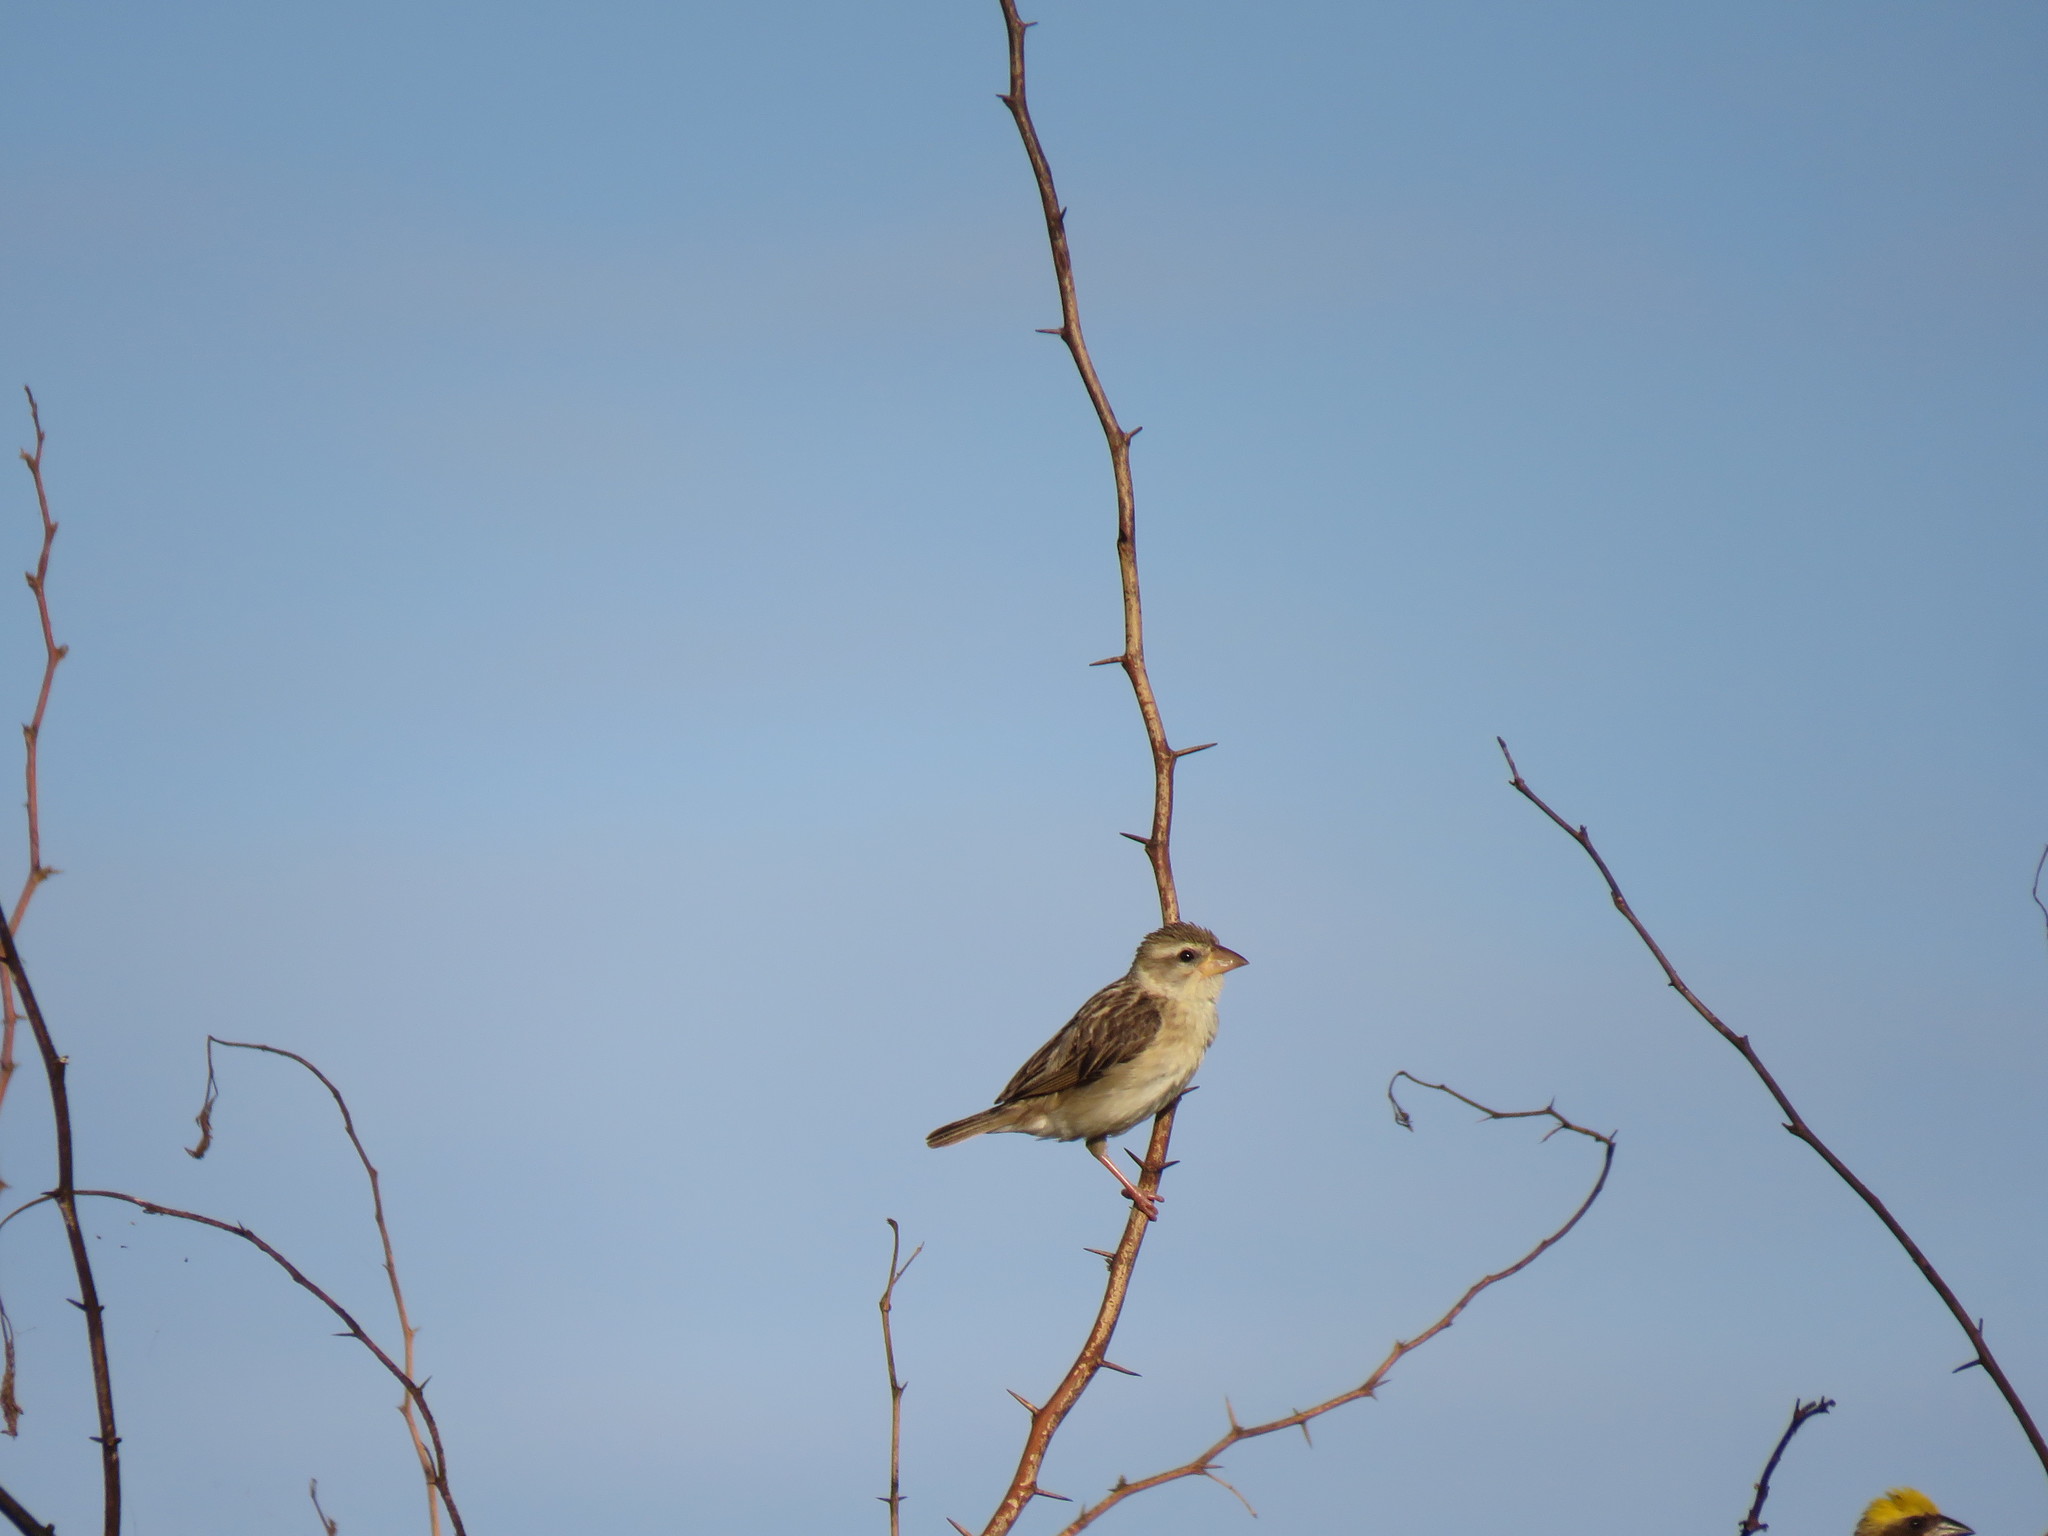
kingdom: Animalia
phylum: Chordata
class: Aves
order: Passeriformes
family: Ploceidae
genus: Ploceus
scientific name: Ploceus philippinus
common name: Baya weaver
